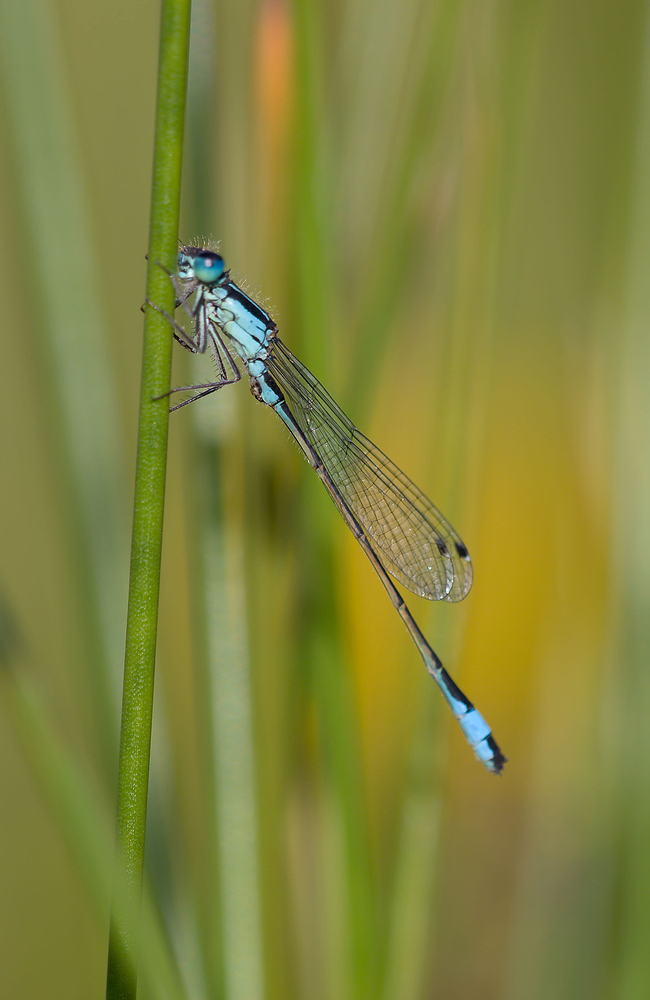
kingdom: Animalia
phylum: Arthropoda
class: Insecta
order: Odonata
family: Coenagrionidae
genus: Ischnura
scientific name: Ischnura elegans
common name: Blue-tailed damselfly
